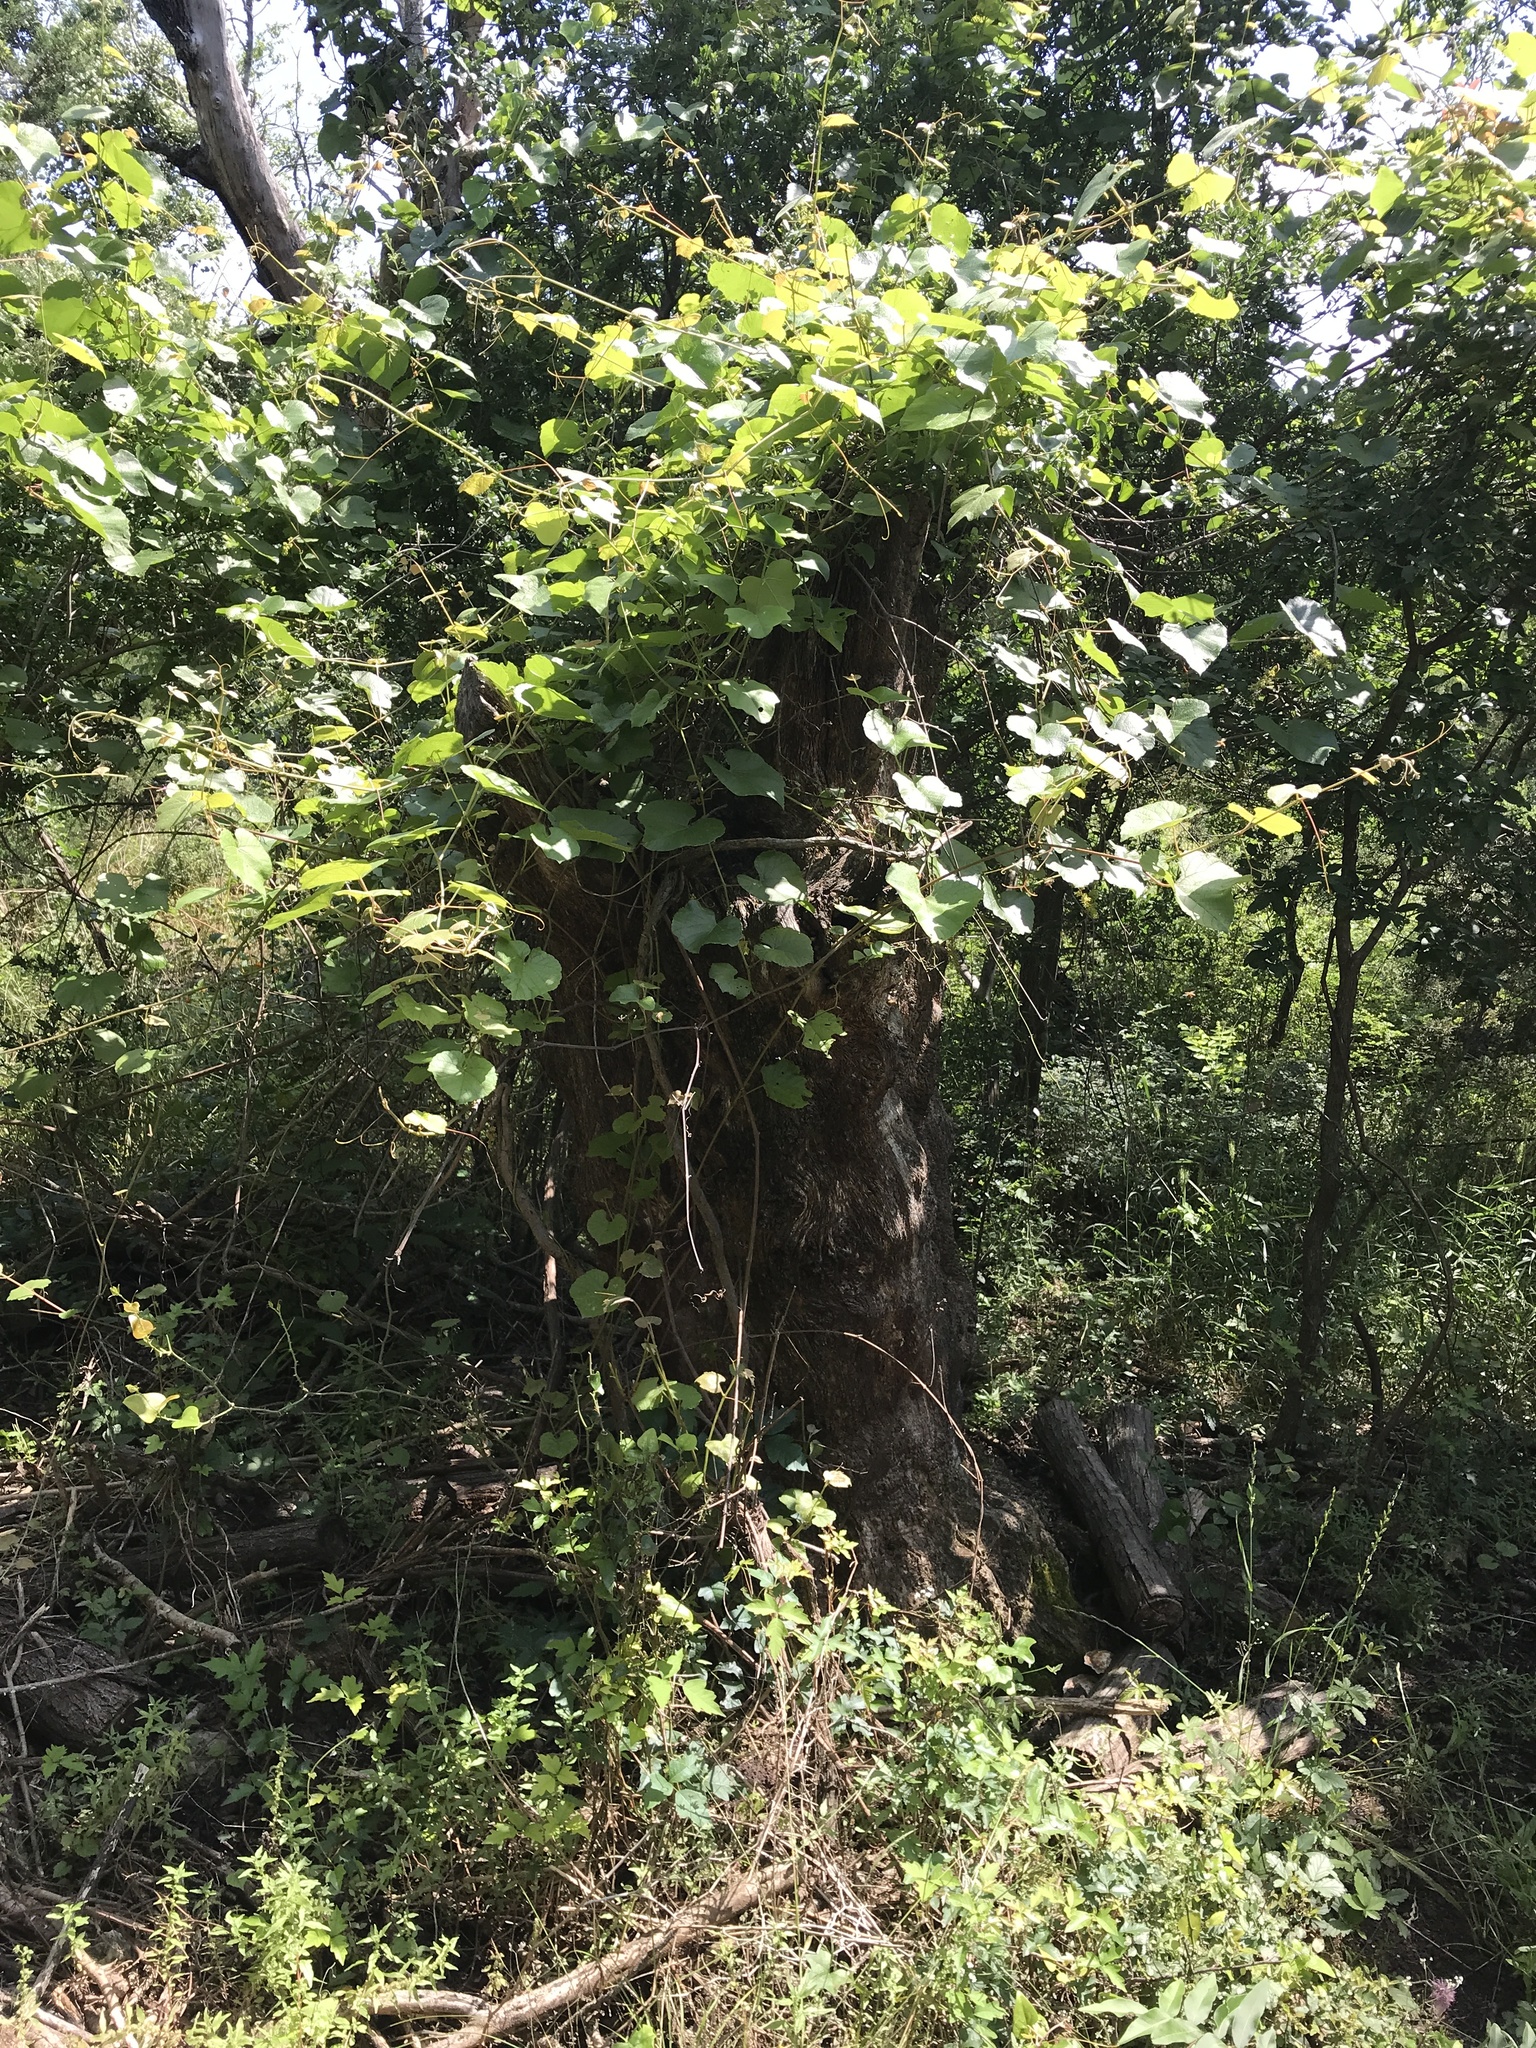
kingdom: Animalia
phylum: Arthropoda
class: Insecta
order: Hymenoptera
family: Apidae
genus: Apis
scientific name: Apis mellifera
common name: Honey bee
